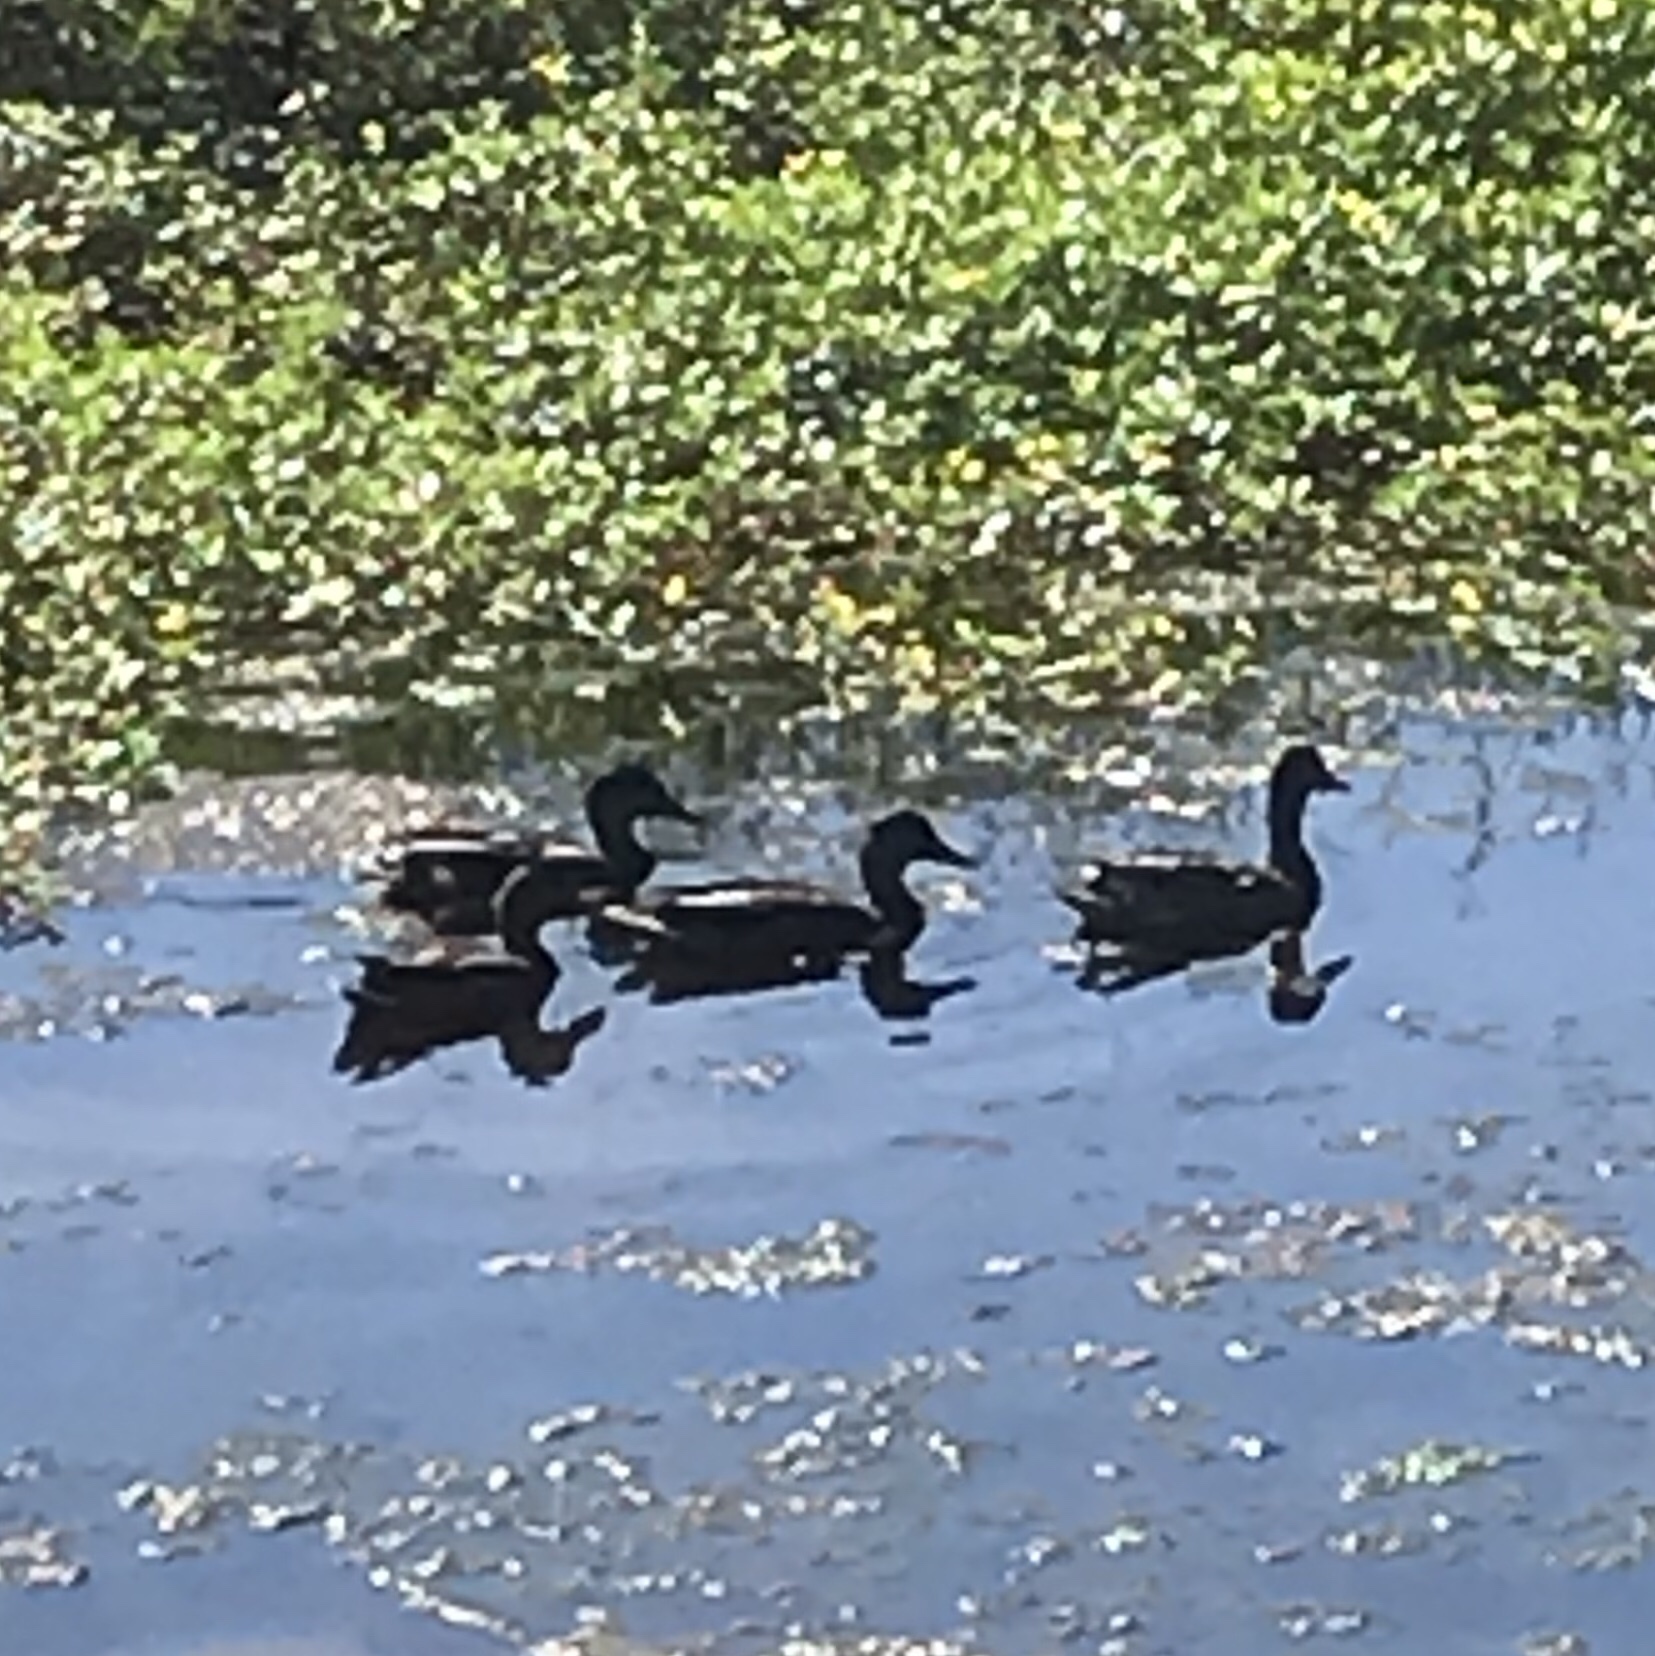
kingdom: Animalia
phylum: Chordata
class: Aves
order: Anseriformes
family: Anatidae
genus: Anas
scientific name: Anas platyrhynchos
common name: Mallard
